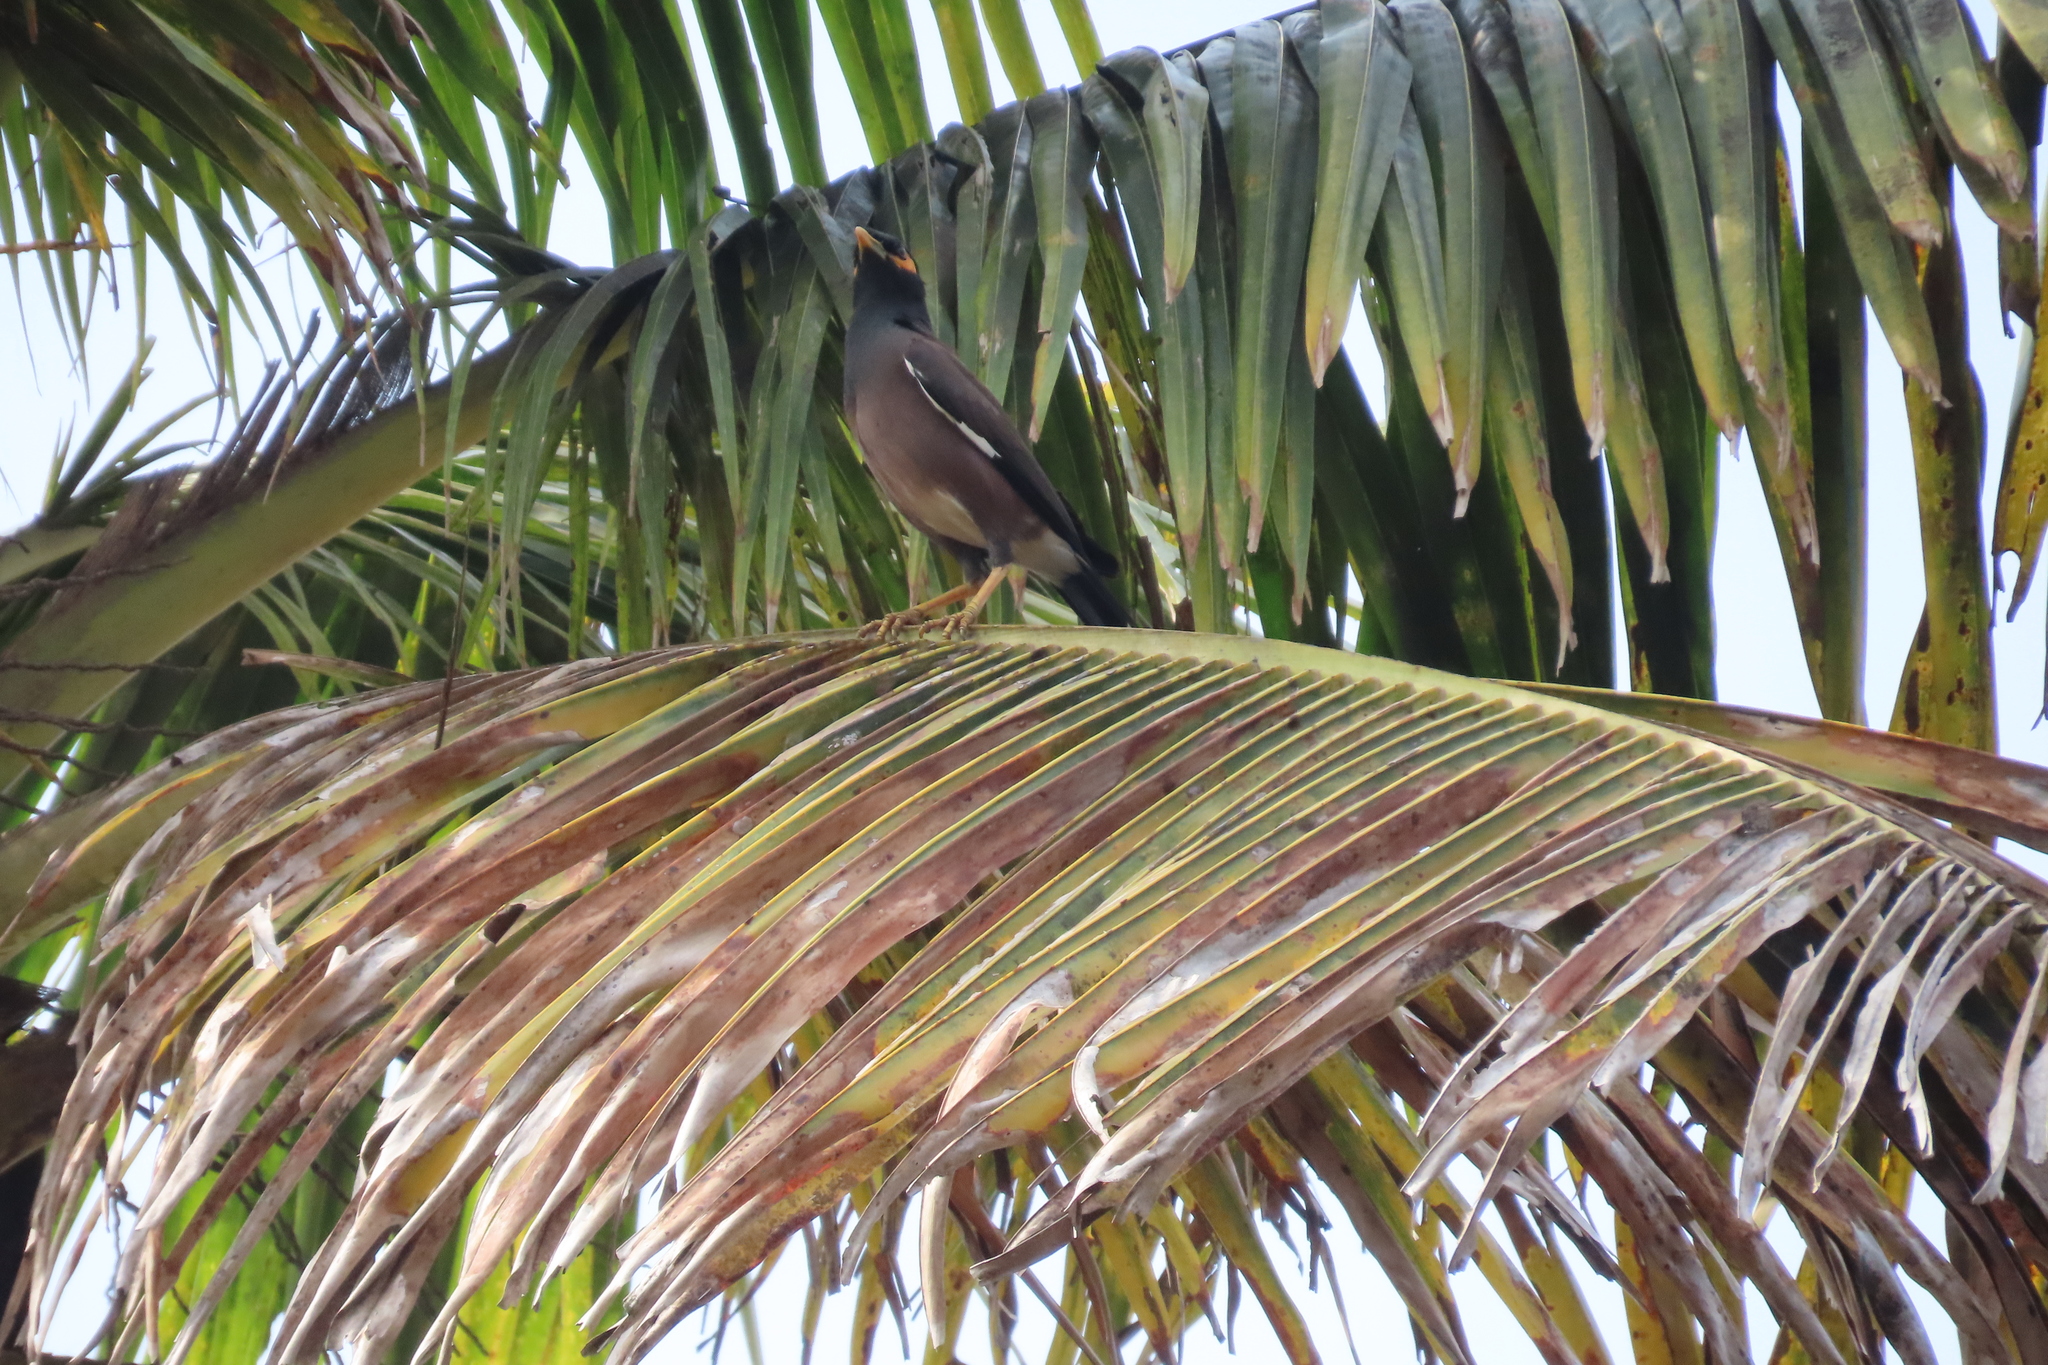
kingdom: Animalia
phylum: Chordata
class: Aves
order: Passeriformes
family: Sturnidae
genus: Acridotheres
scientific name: Acridotheres tristis
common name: Common myna
